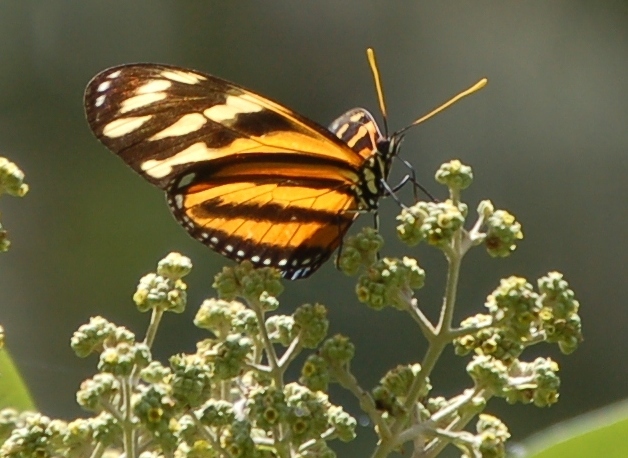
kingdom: Animalia
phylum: Arthropoda
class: Insecta
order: Lepidoptera
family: Nymphalidae
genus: Lycorea
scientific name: Lycorea eva
